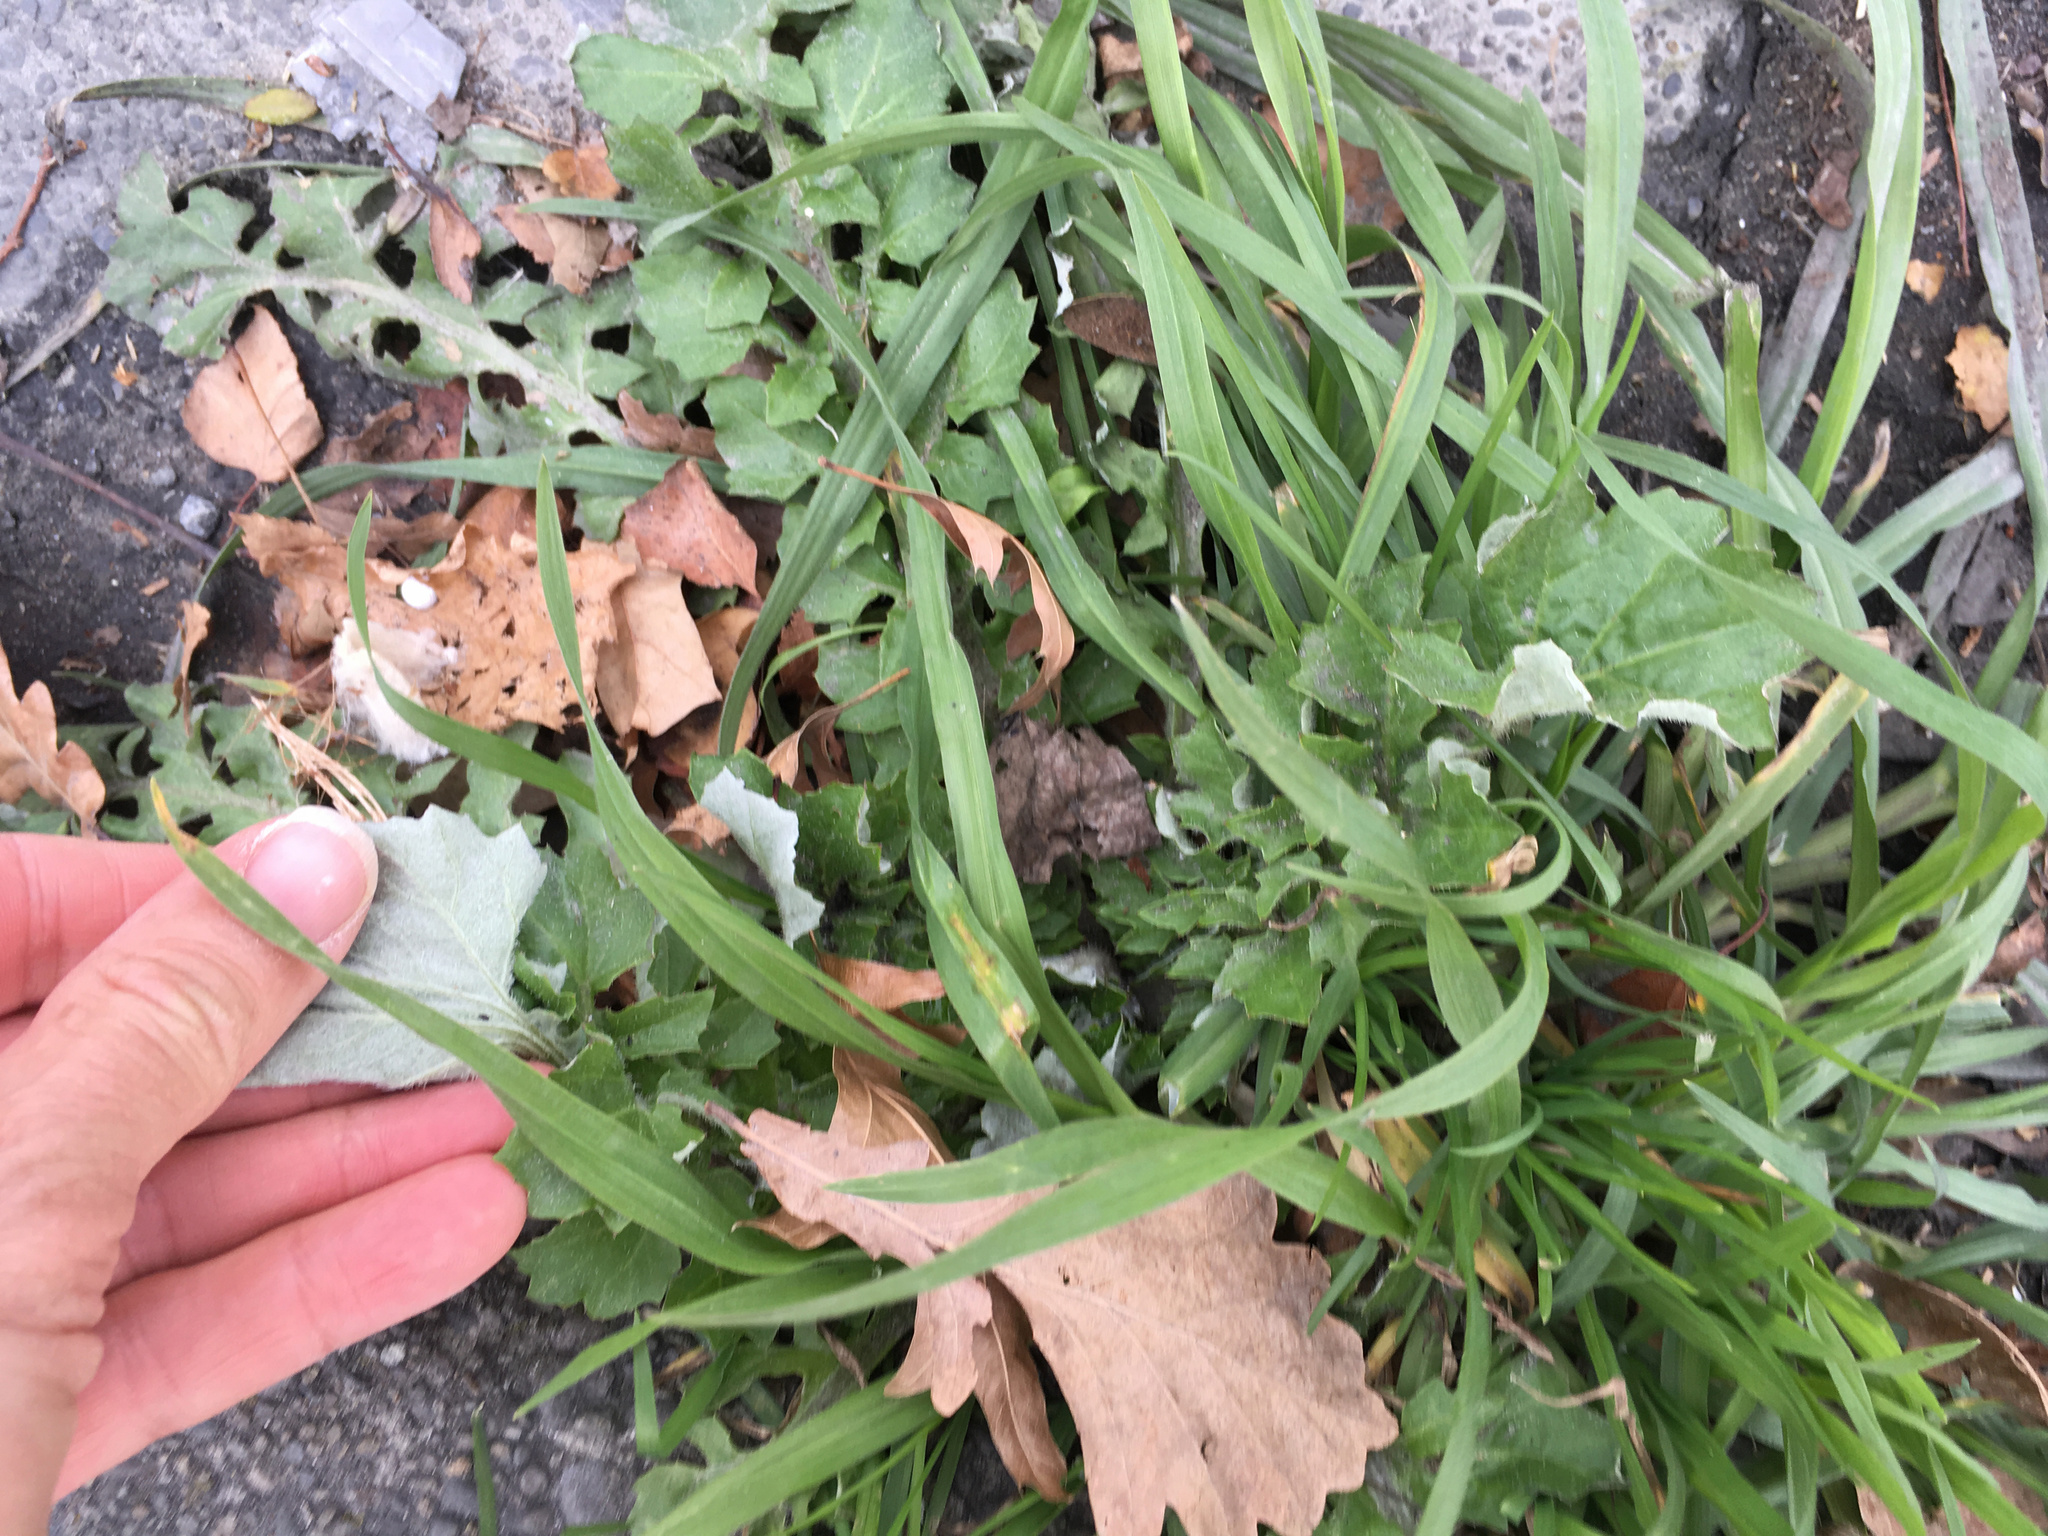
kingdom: Plantae
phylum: Tracheophyta
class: Magnoliopsida
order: Asterales
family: Asteraceae
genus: Arctotheca
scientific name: Arctotheca calendula
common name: Capeweed
